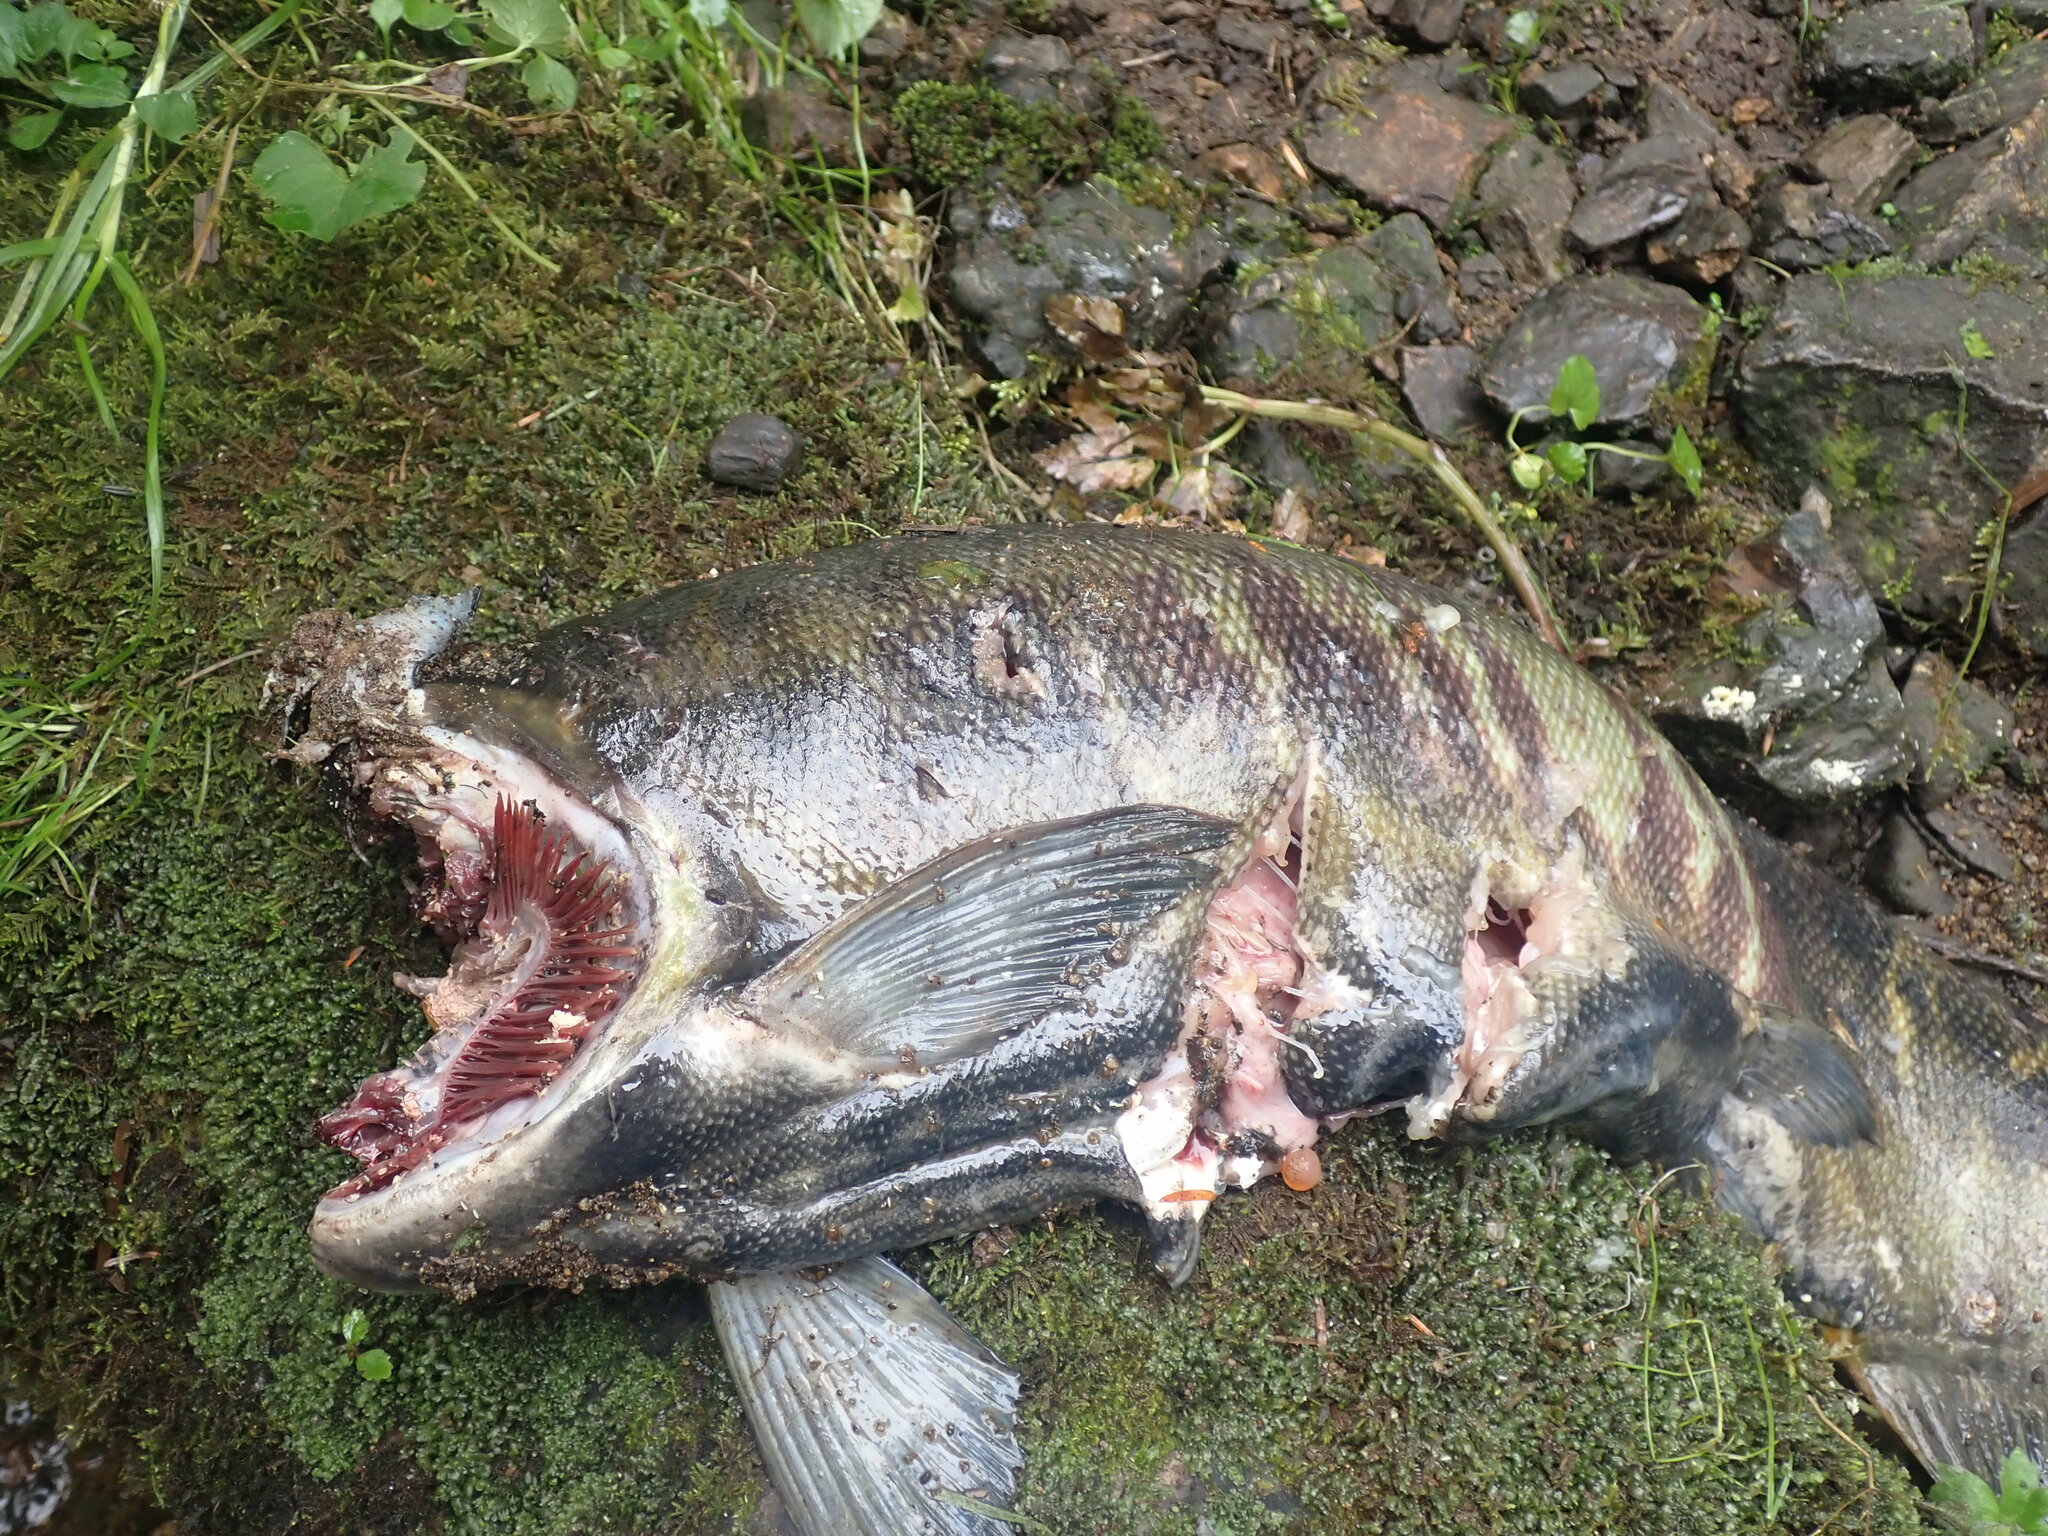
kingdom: Animalia
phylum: Chordata
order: Salmoniformes
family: Salmonidae
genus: Oncorhynchus
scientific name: Oncorhynchus keta
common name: Chum salmon
